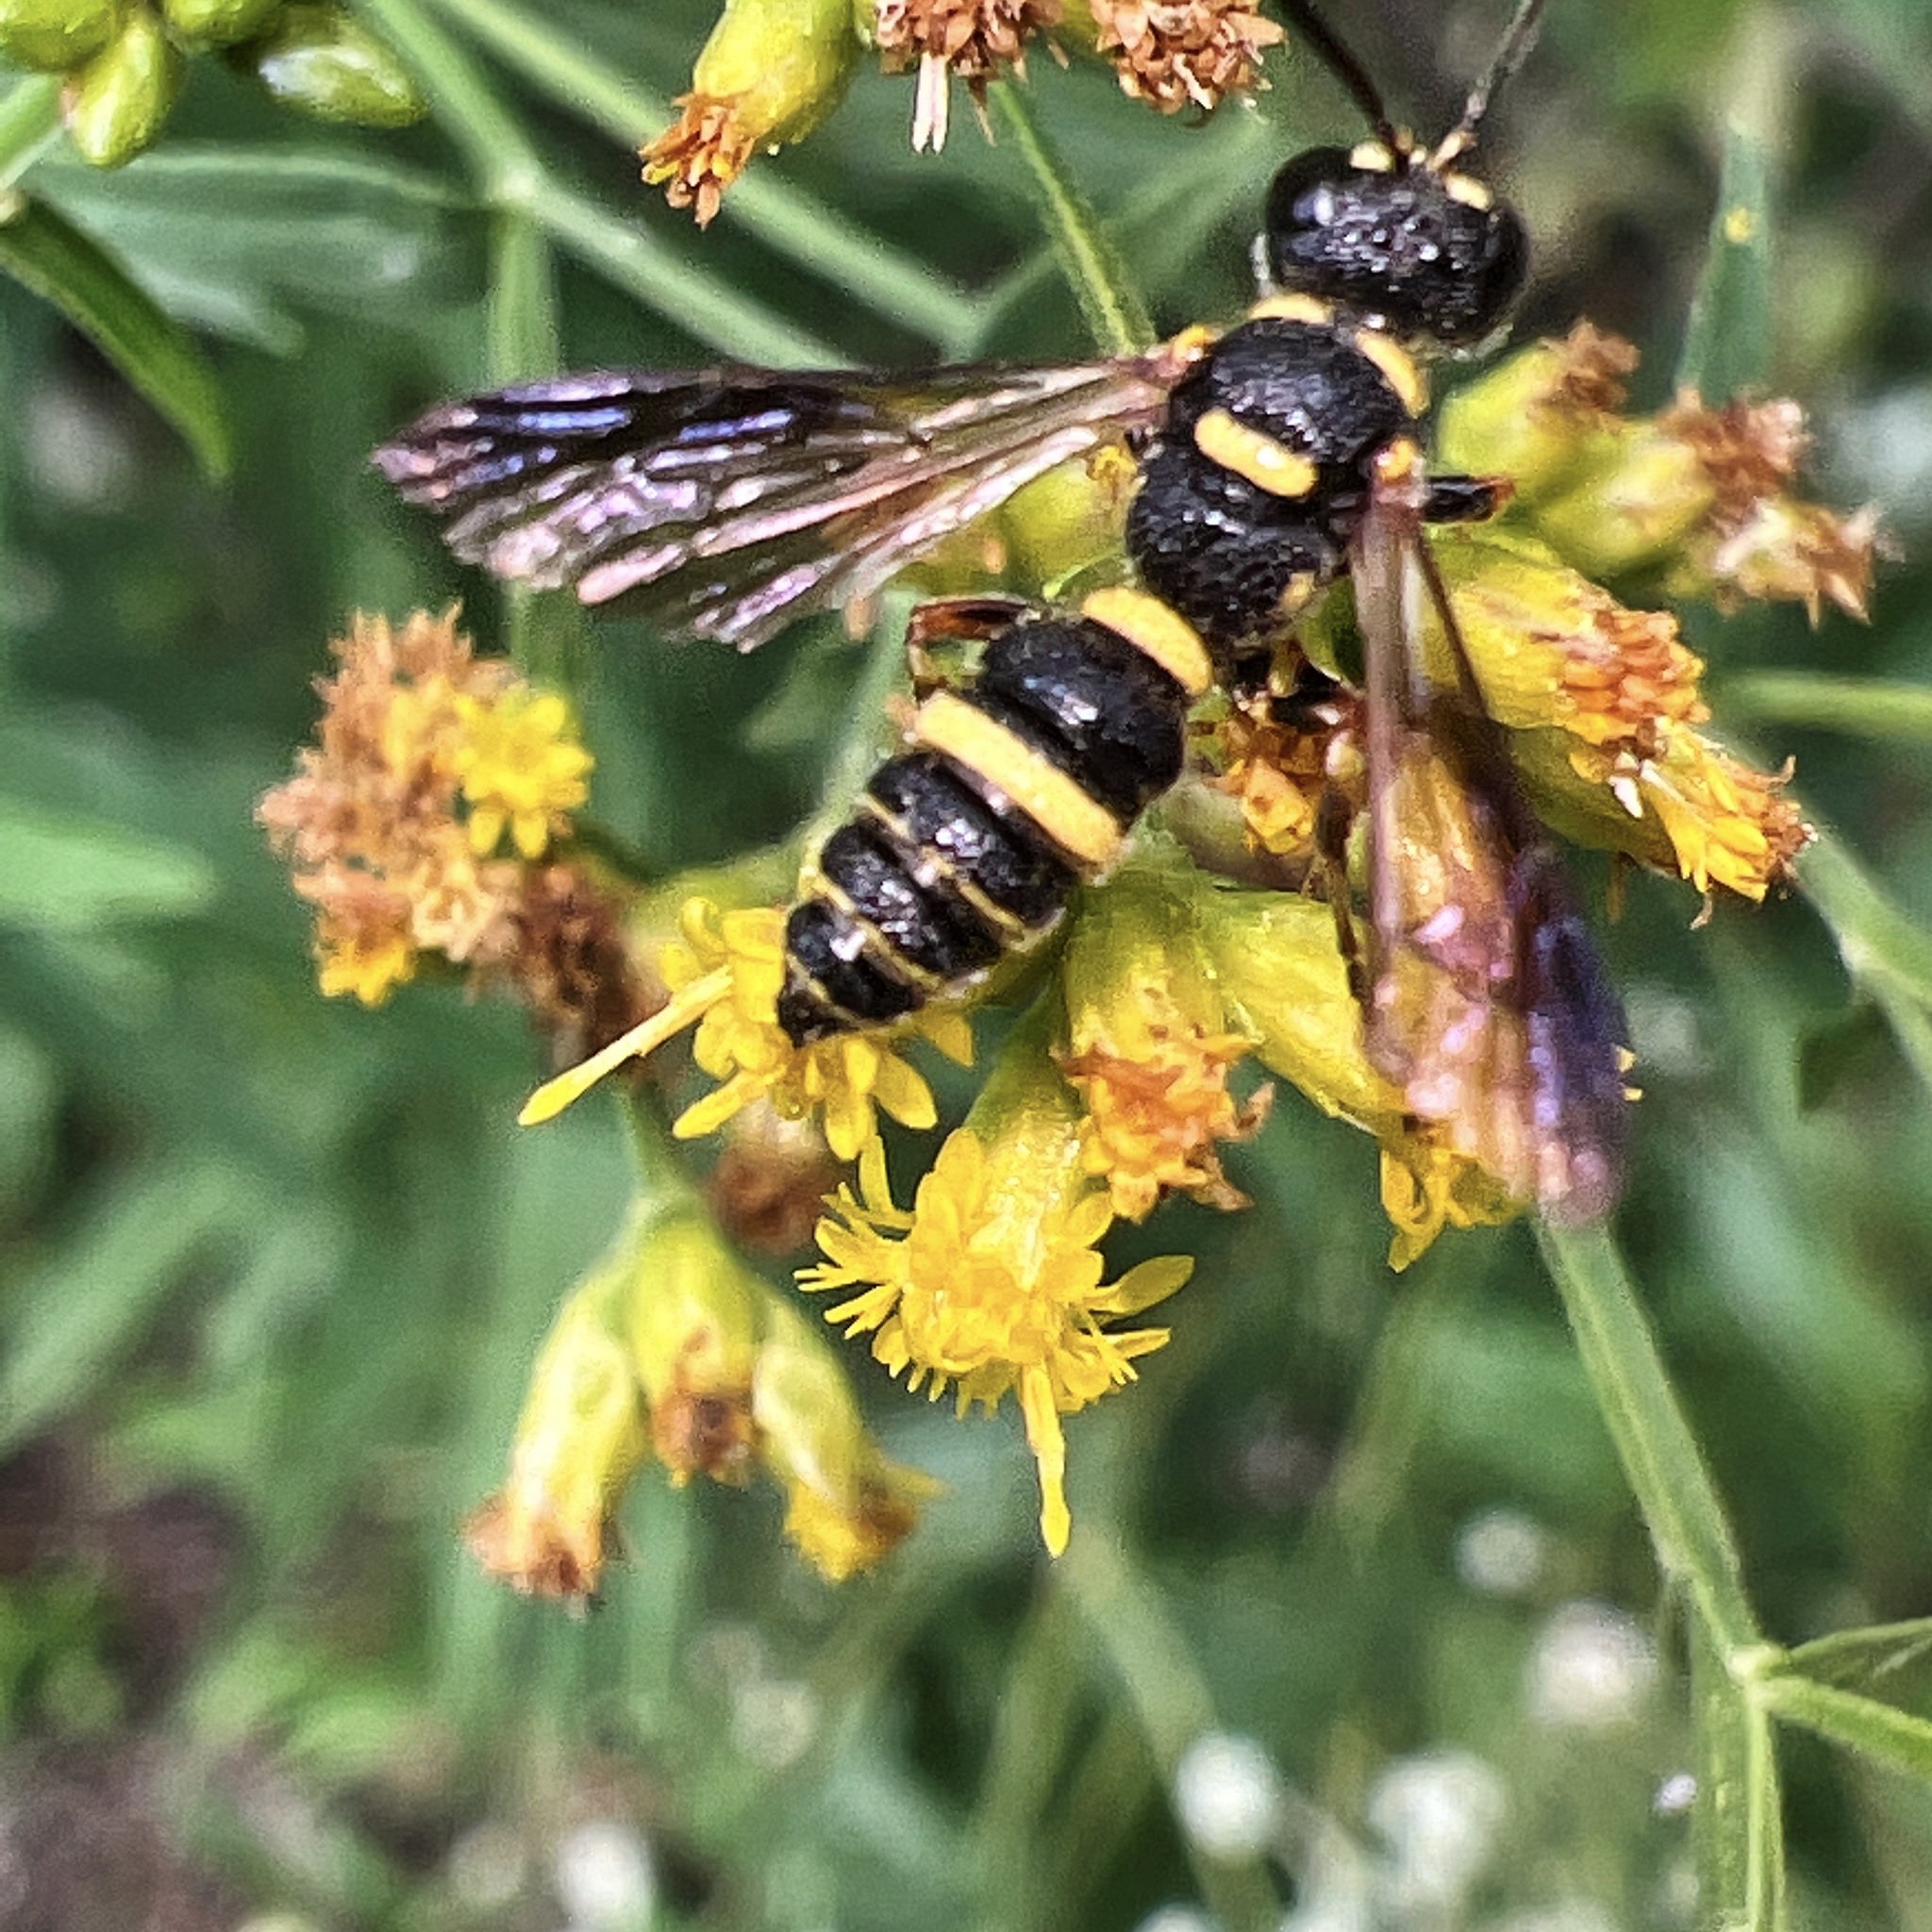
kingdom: Animalia
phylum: Arthropoda
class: Insecta
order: Hymenoptera
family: Crabronidae
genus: Cerceris
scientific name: Cerceris insolita
